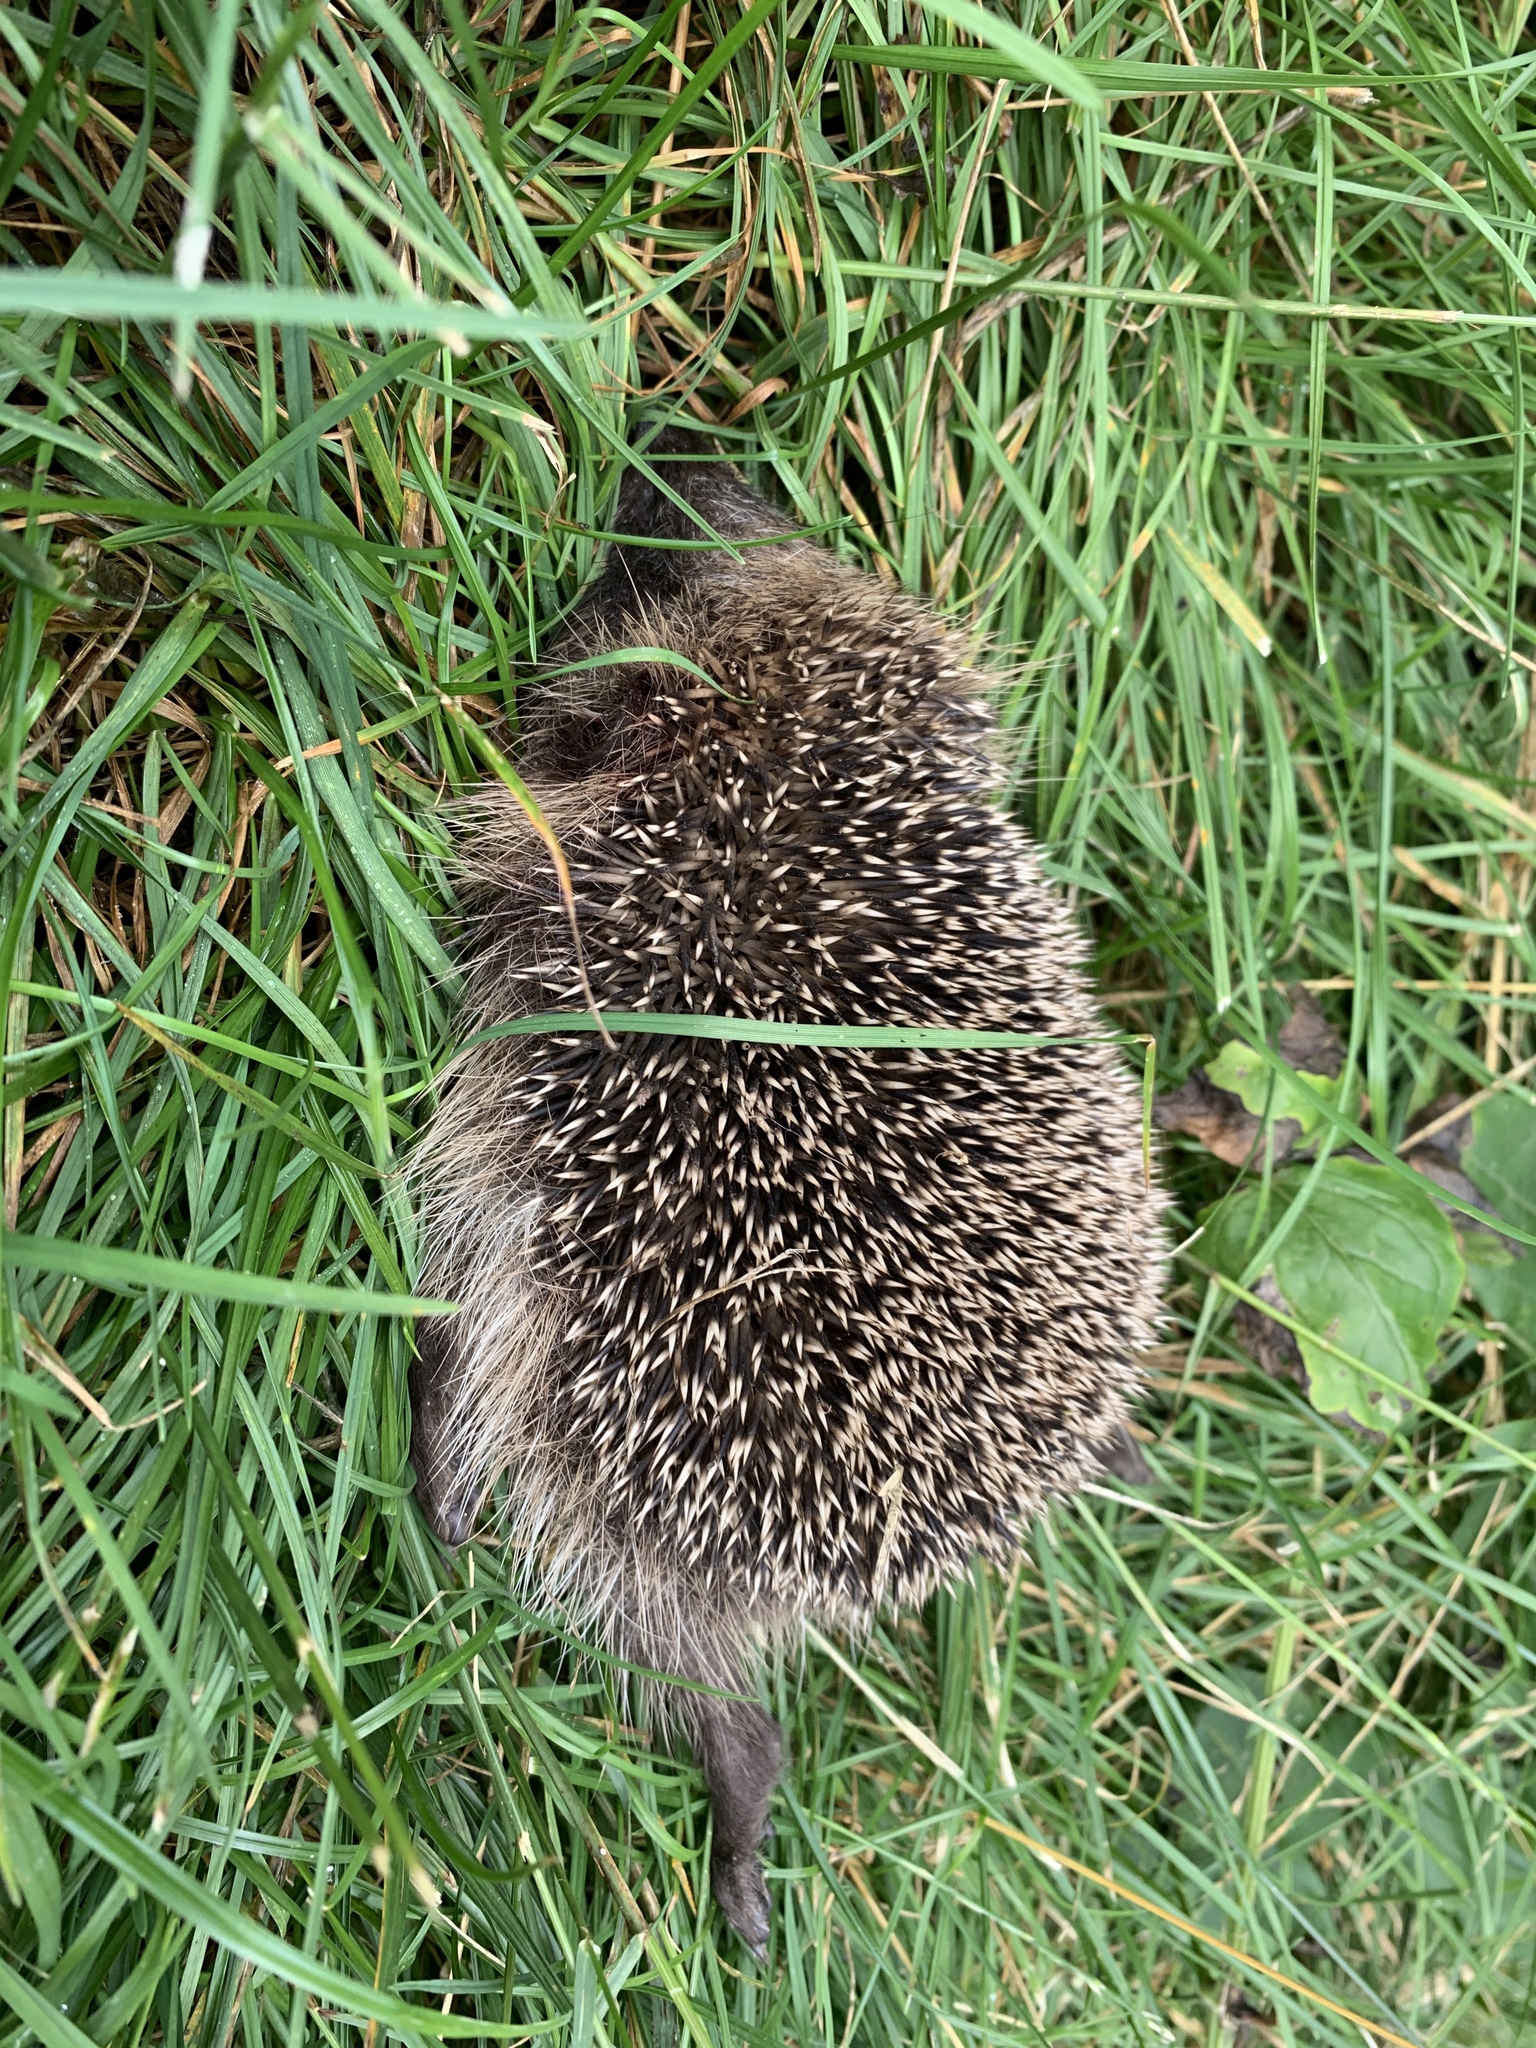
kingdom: Animalia
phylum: Chordata
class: Mammalia
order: Erinaceomorpha
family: Erinaceidae
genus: Erinaceus
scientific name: Erinaceus europaeus
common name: West european hedgehog
